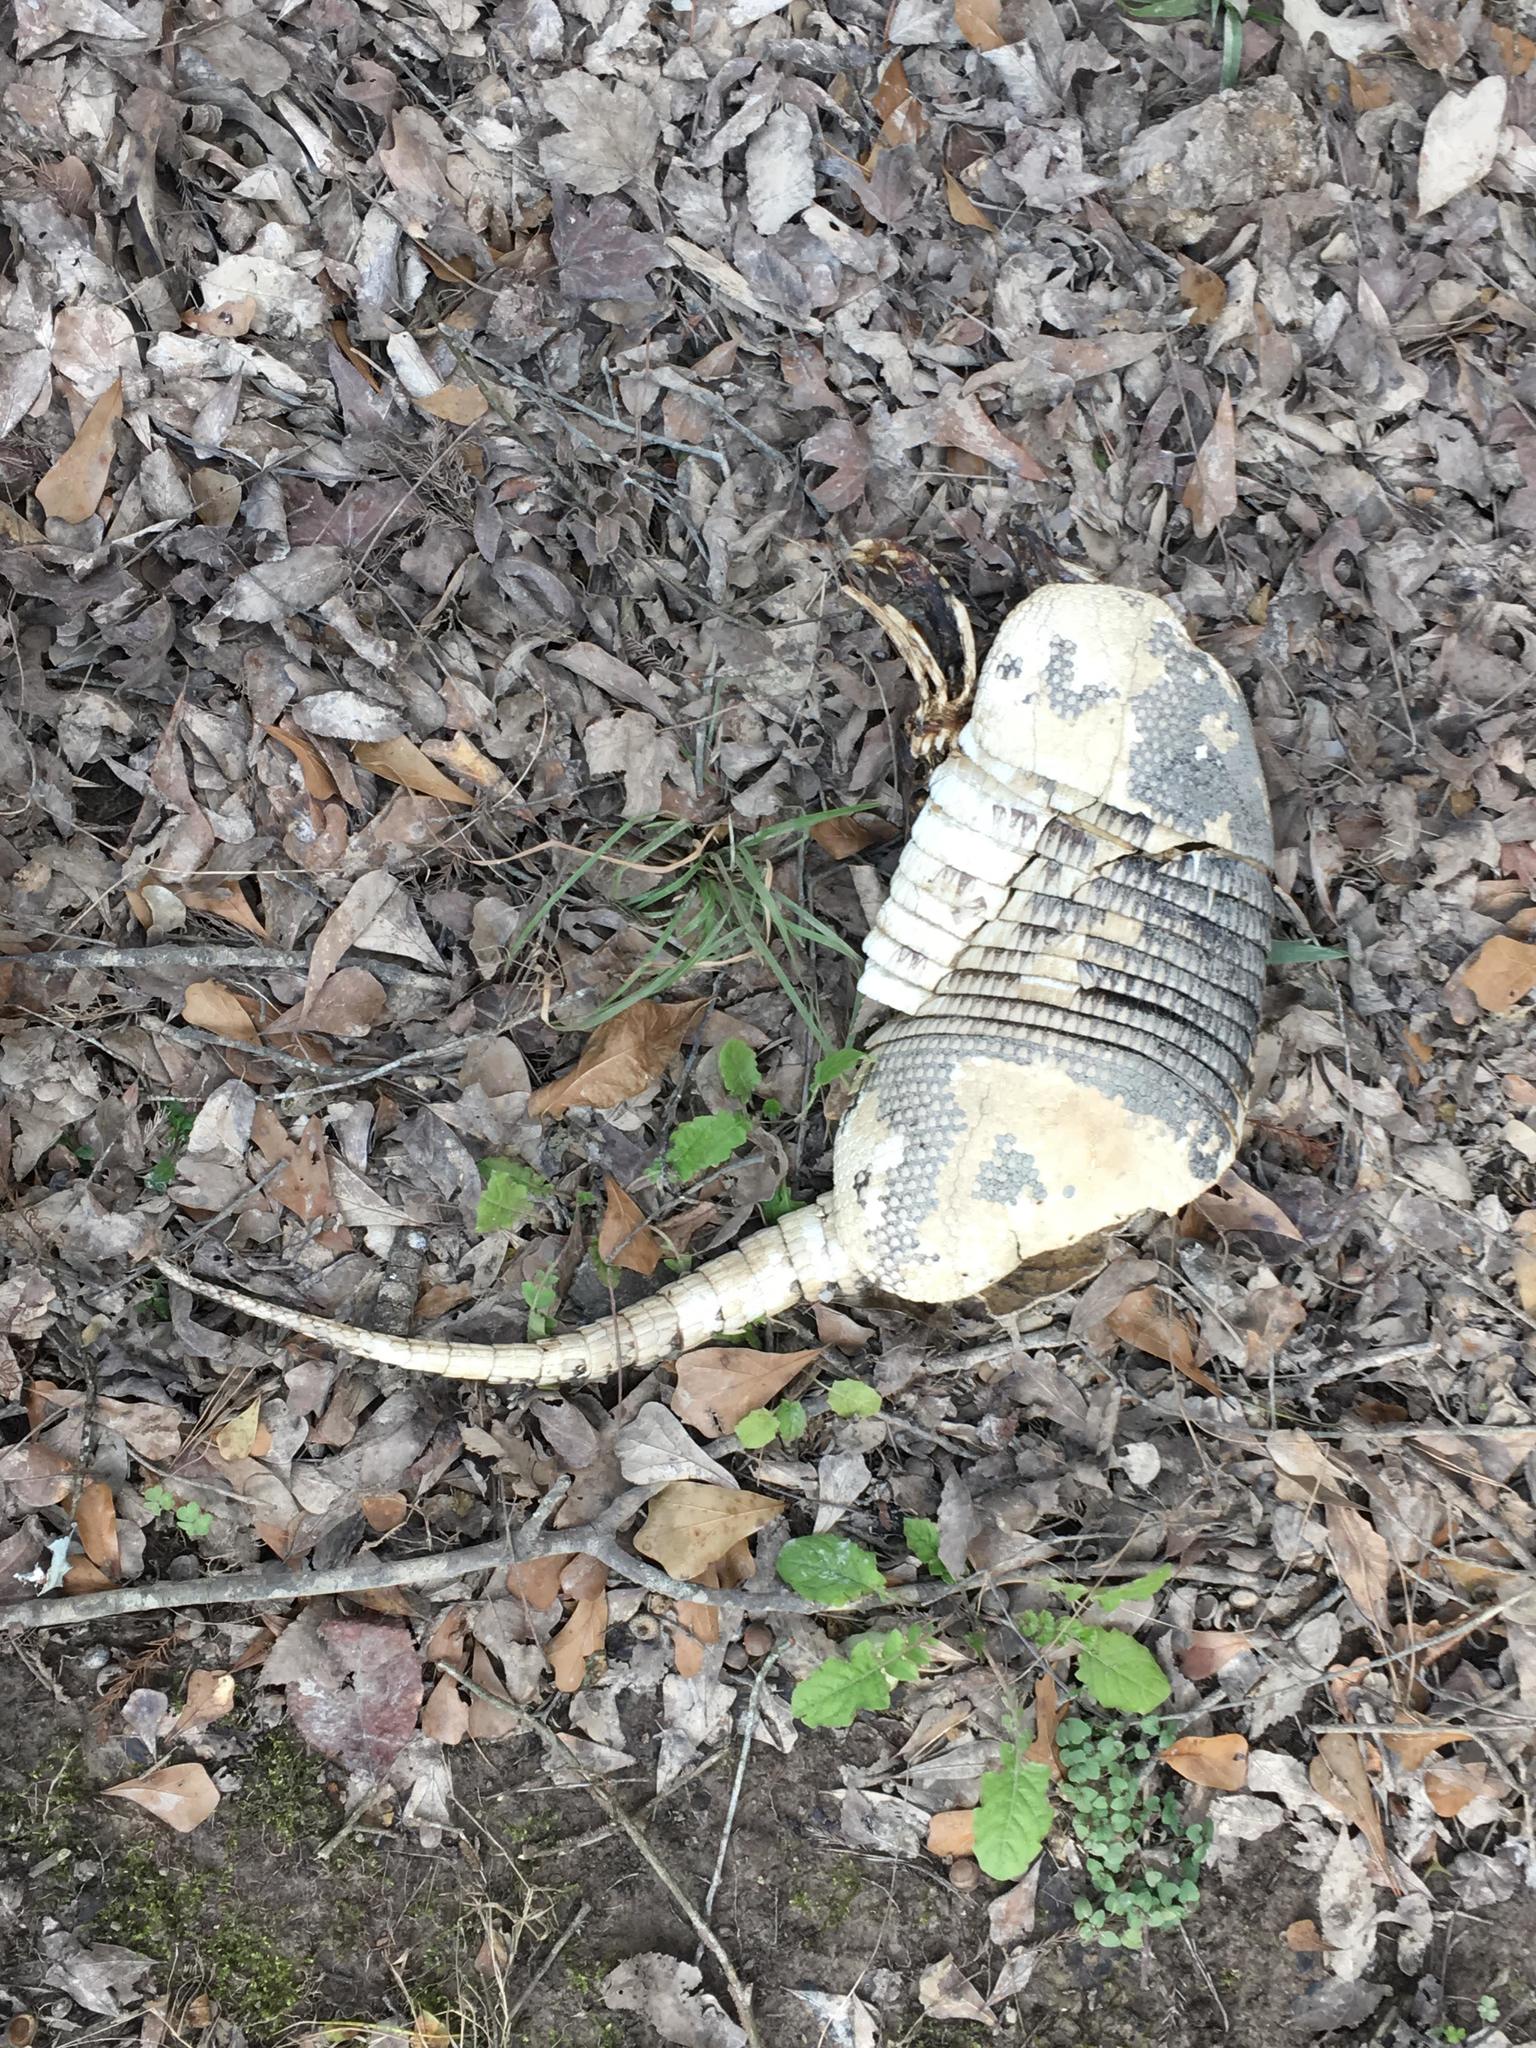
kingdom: Animalia
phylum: Chordata
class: Mammalia
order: Cingulata
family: Dasypodidae
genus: Dasypus
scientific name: Dasypus novemcinctus
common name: Nine-banded armadillo
